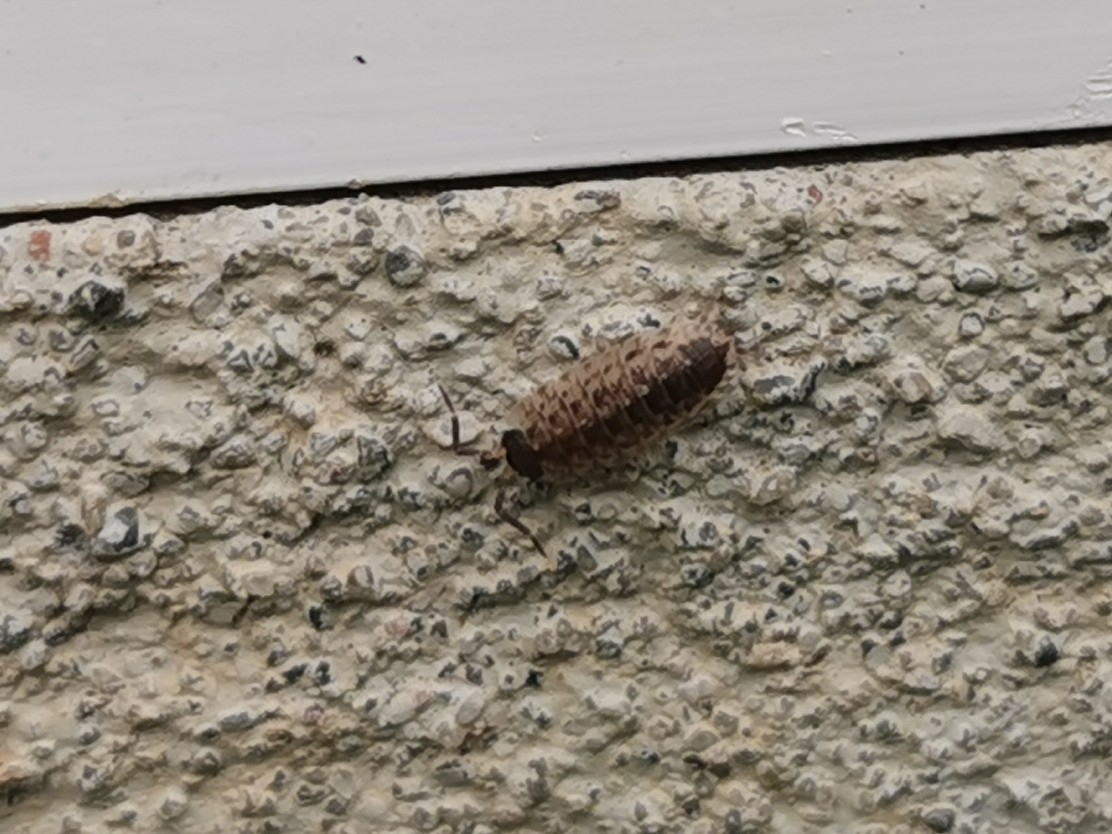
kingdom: Animalia
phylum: Arthropoda
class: Malacostraca
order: Isopoda
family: Porcellionidae
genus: Porcellio
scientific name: Porcellio spinicornis
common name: Painted woodlouse
